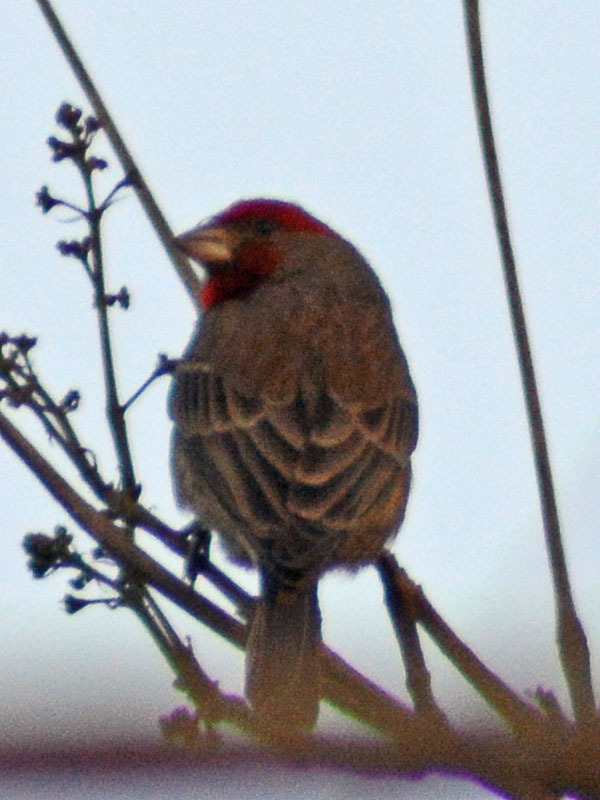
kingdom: Animalia
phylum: Chordata
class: Aves
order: Passeriformes
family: Fringillidae
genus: Haemorhous
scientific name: Haemorhous mexicanus
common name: House finch
